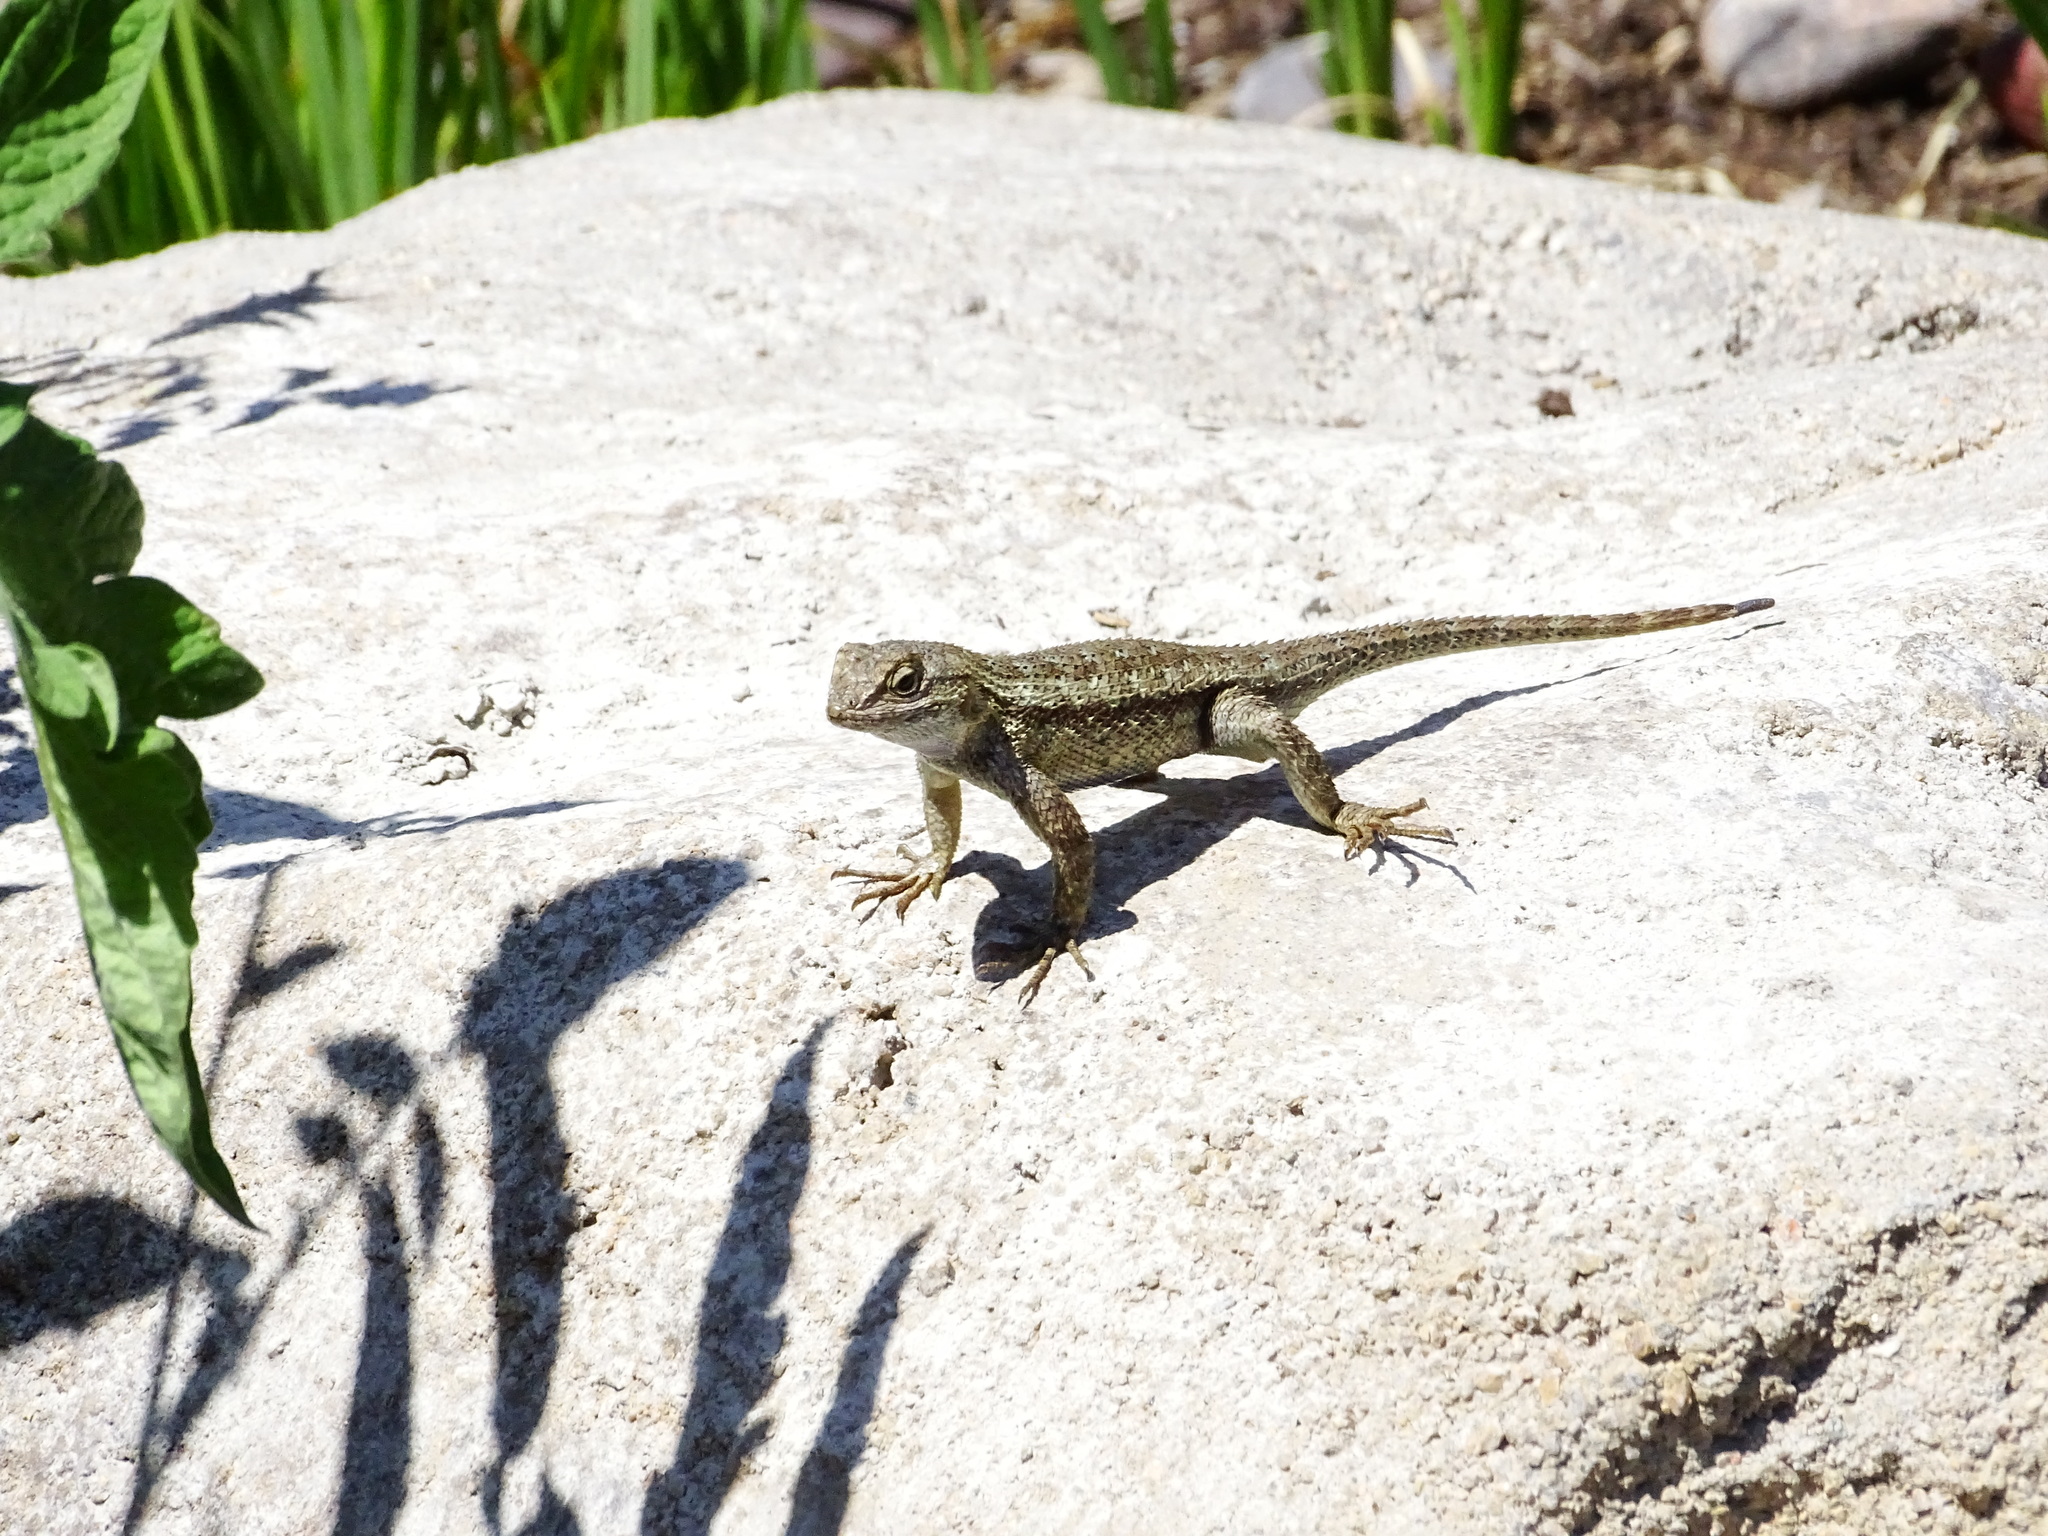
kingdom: Animalia
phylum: Chordata
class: Squamata
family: Phrynosomatidae
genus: Sceloporus
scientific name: Sceloporus occidentalis
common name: Western fence lizard
